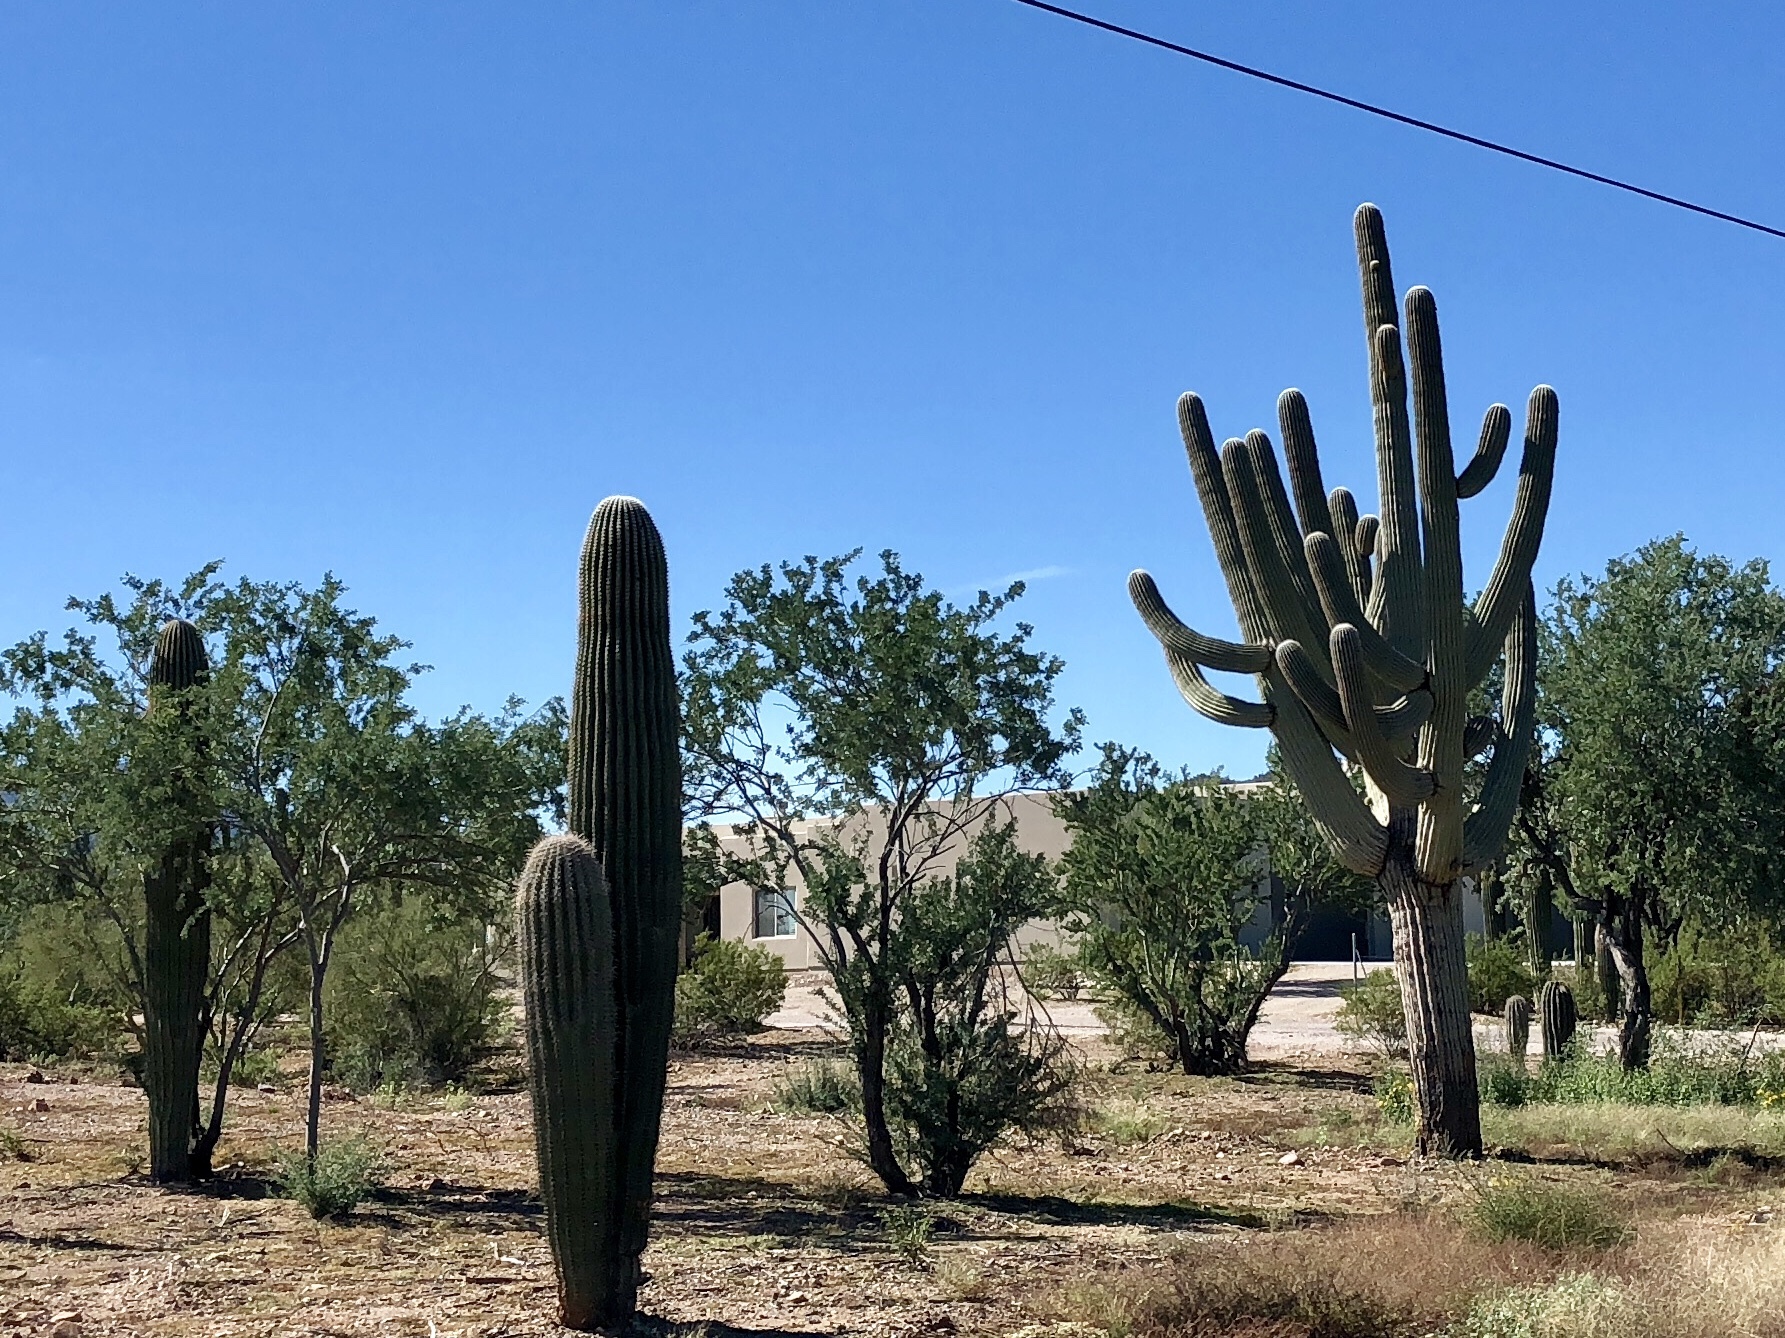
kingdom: Plantae
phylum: Tracheophyta
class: Magnoliopsida
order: Caryophyllales
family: Cactaceae
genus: Carnegiea
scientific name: Carnegiea gigantea
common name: Saguaro
